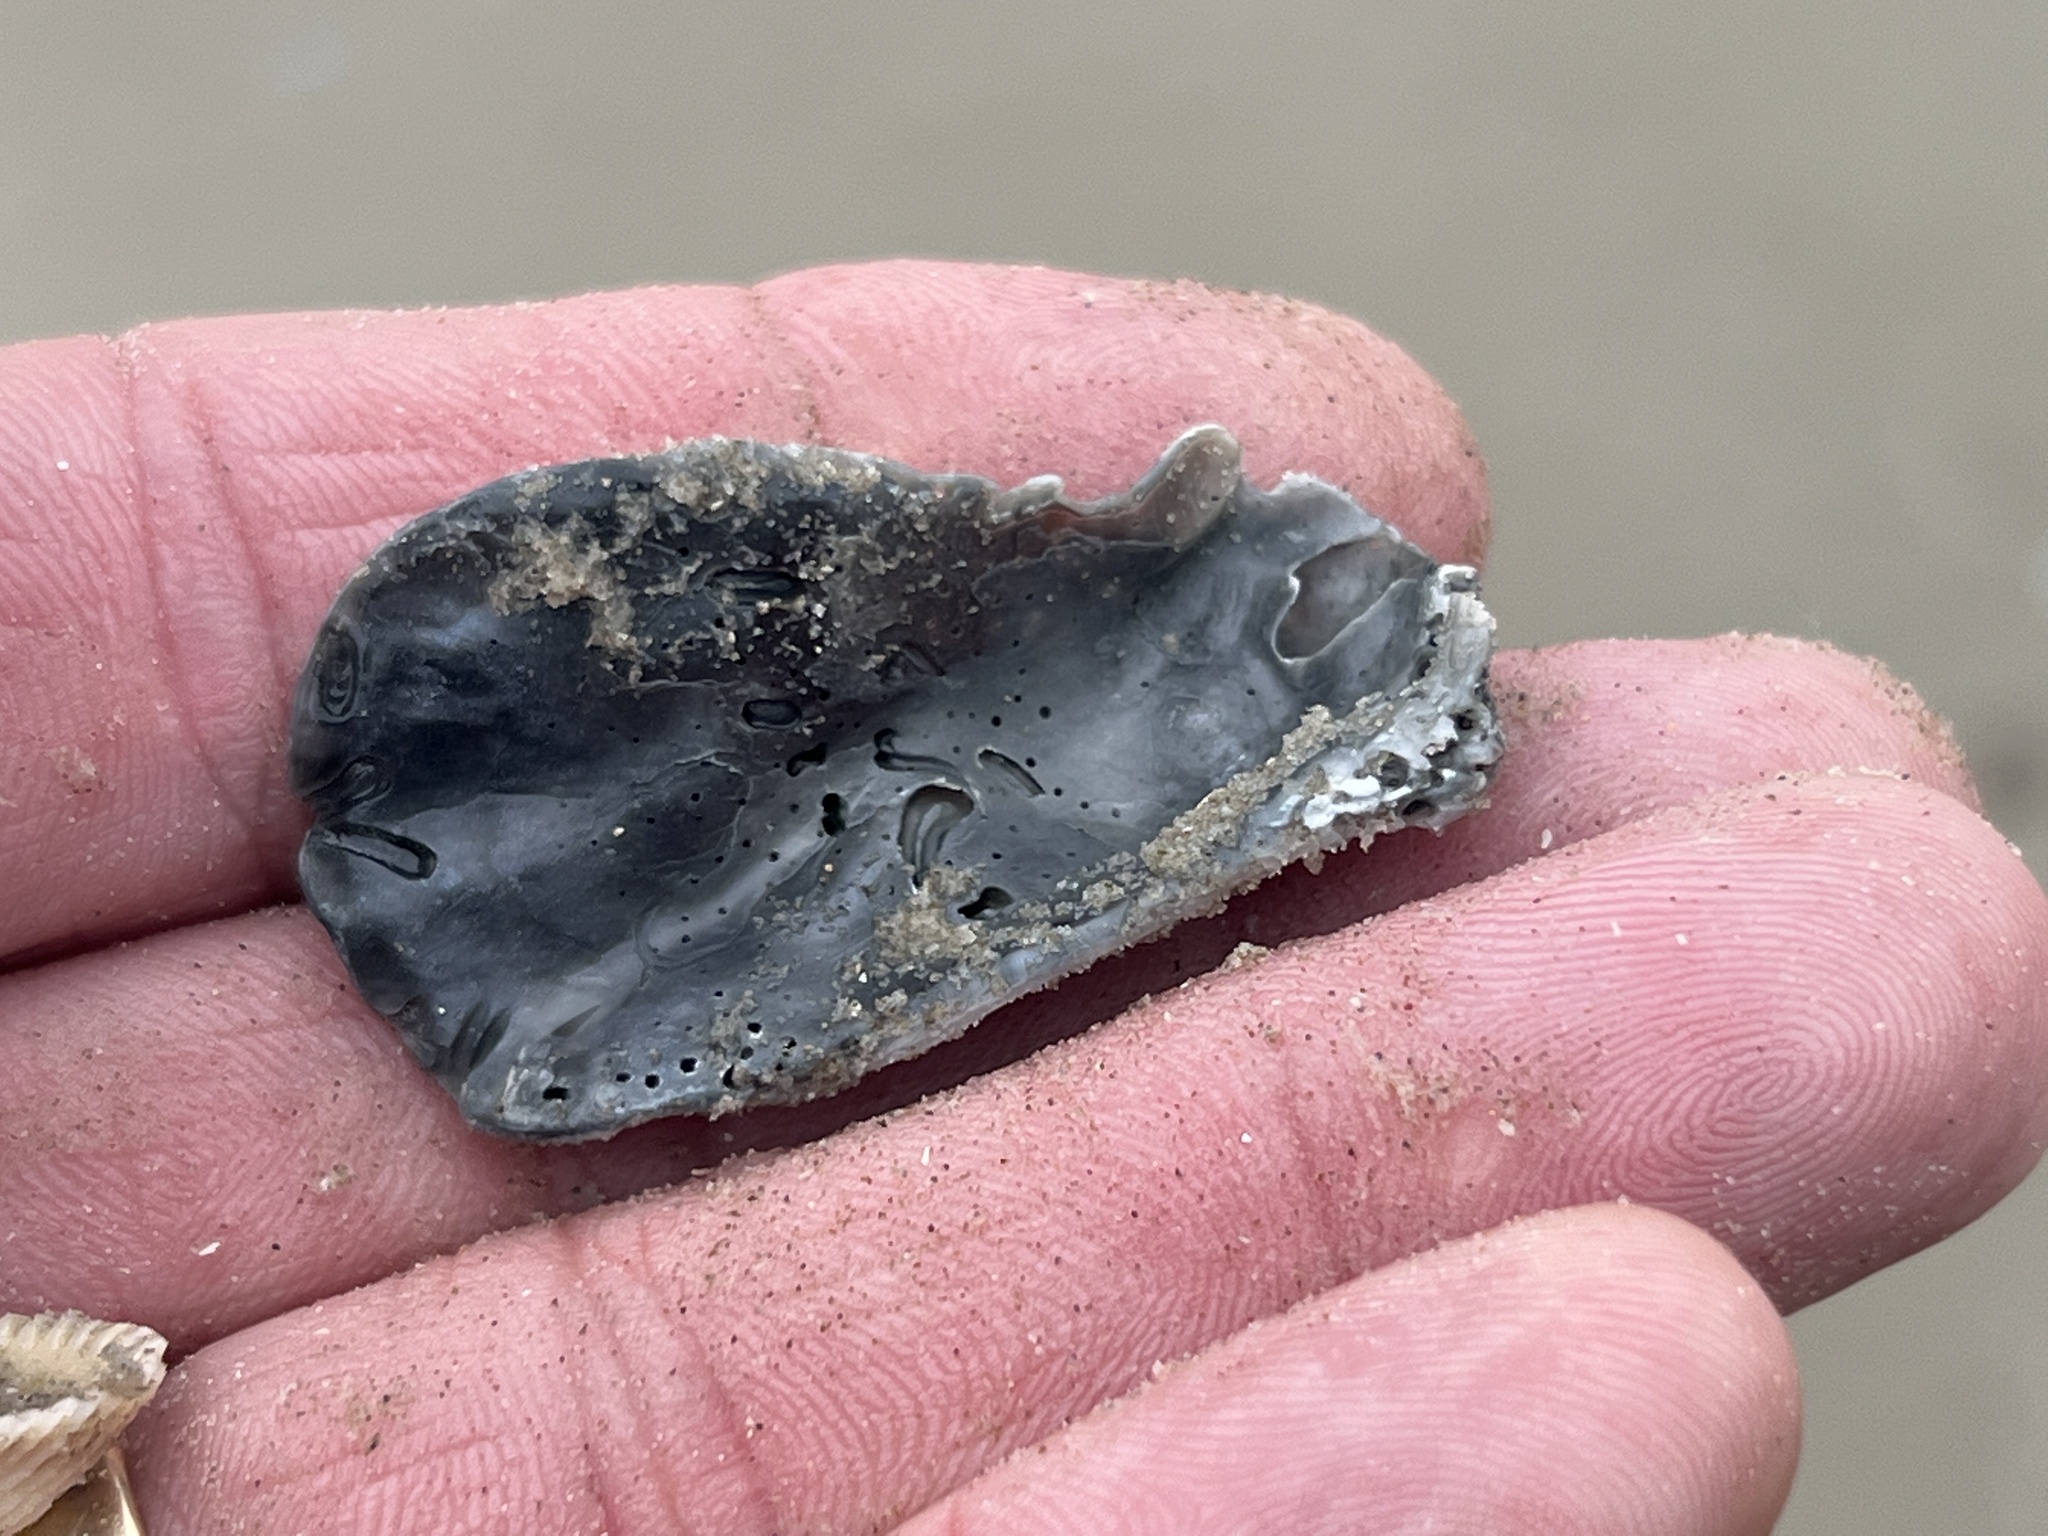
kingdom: Animalia
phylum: Mollusca
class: Bivalvia
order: Ostreida
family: Ostreidae
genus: Crassostrea
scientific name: Crassostrea virginica
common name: American oyster
